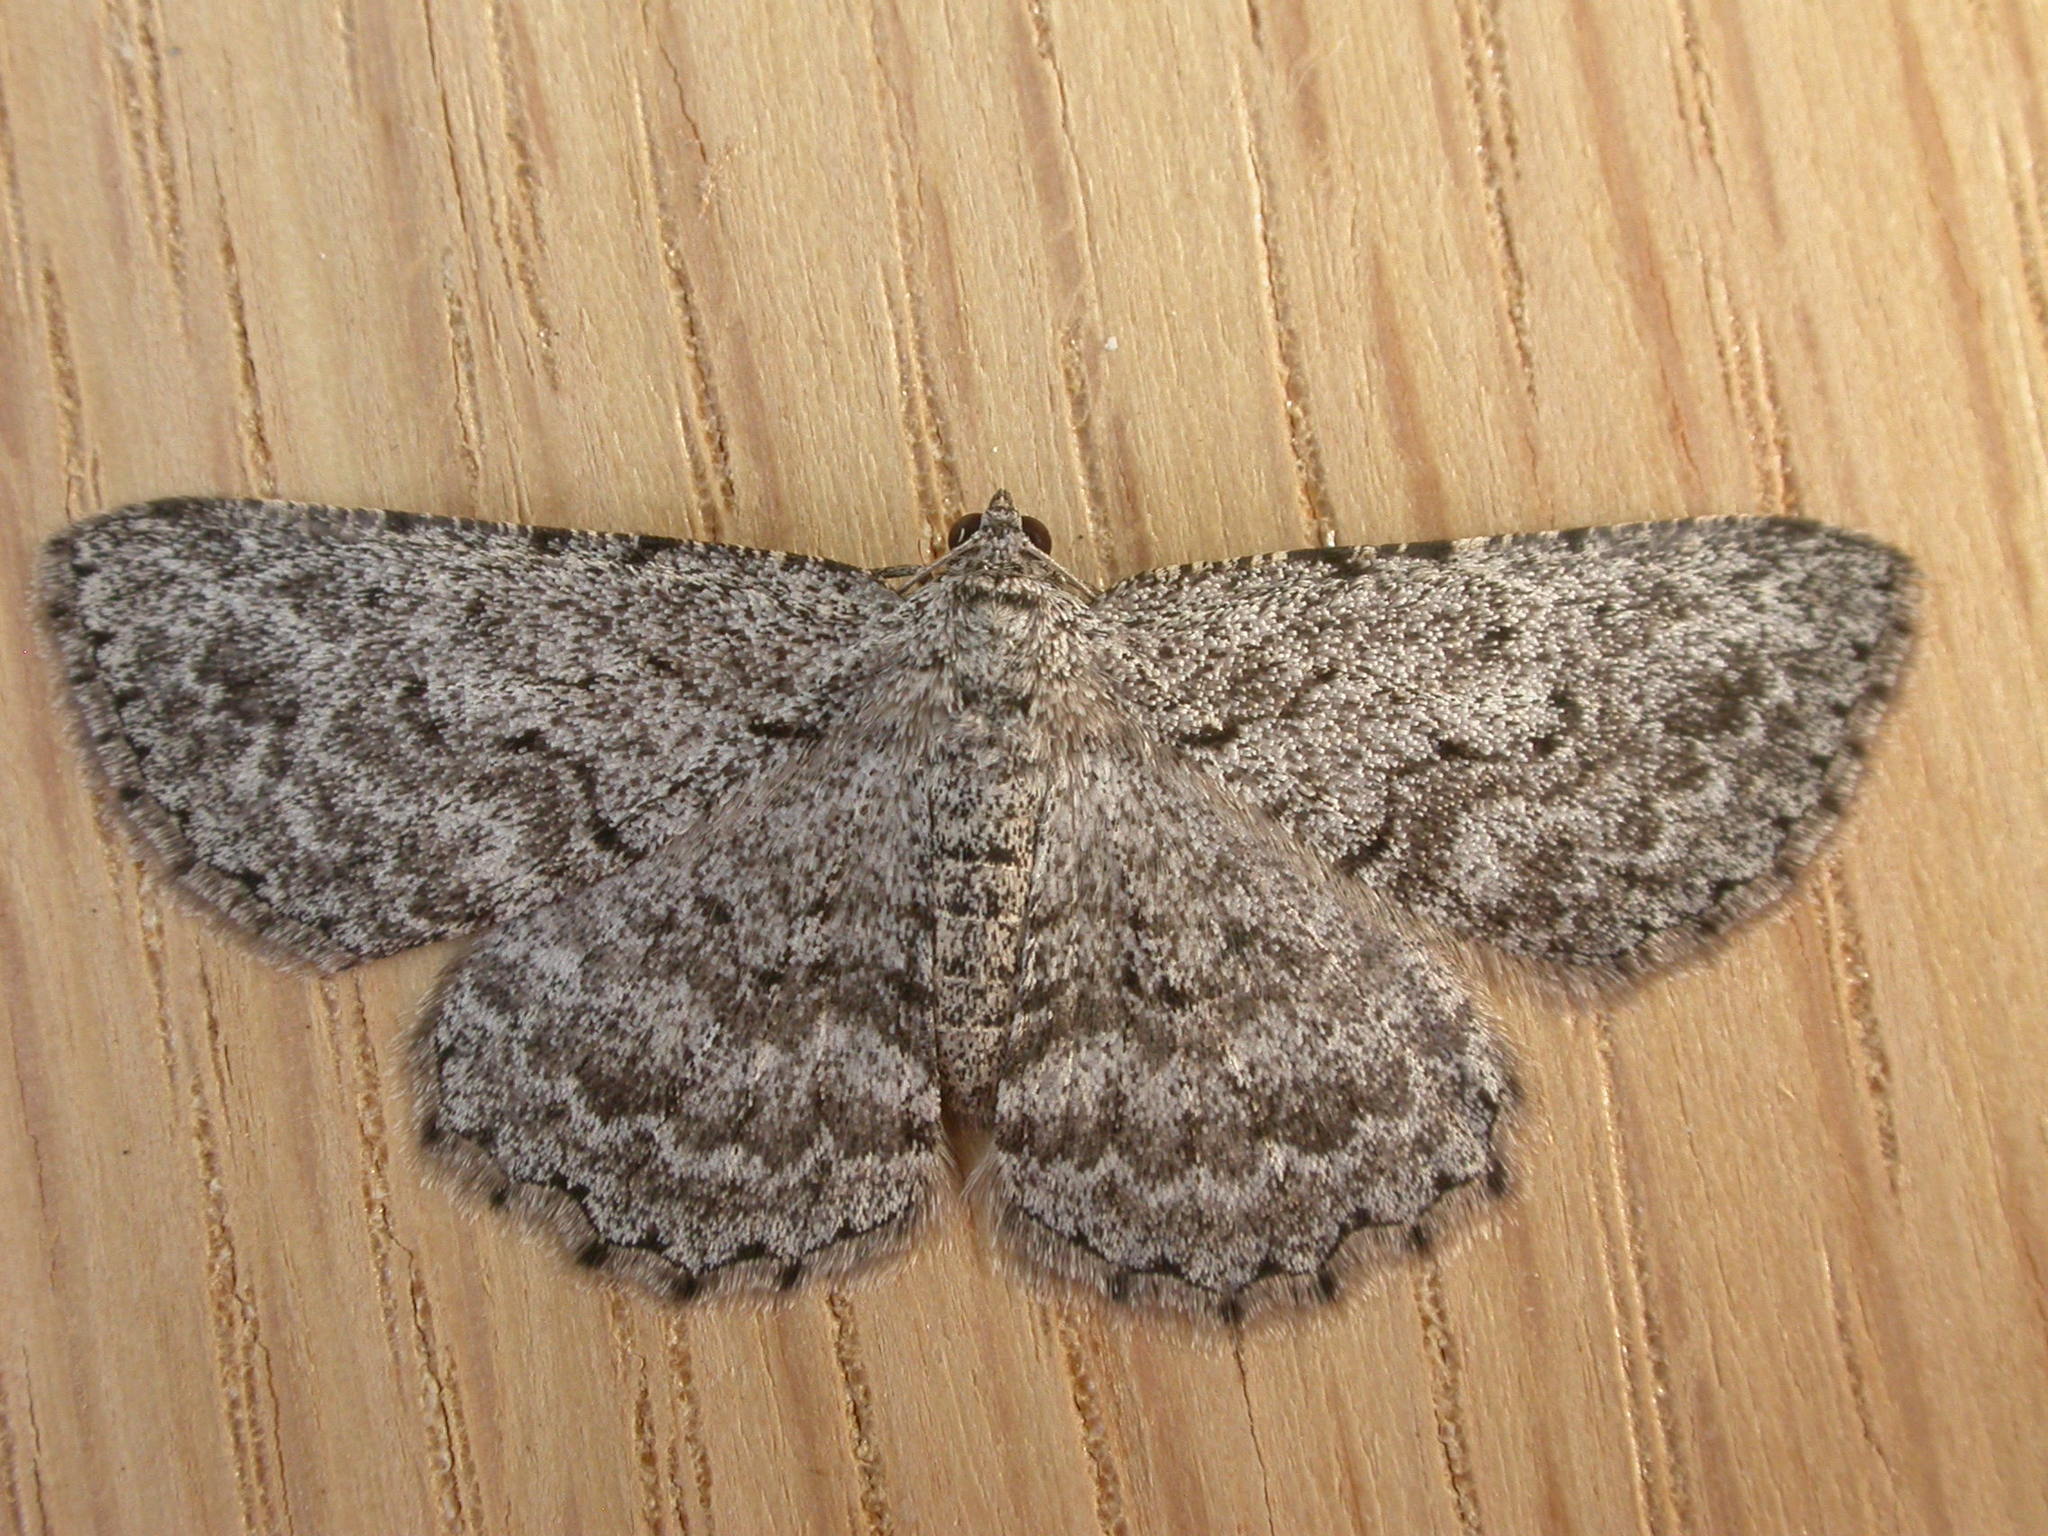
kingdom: Animalia
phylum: Arthropoda
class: Insecta
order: Lepidoptera
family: Geometridae
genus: Psilosticha
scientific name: Psilosticha absorpta
